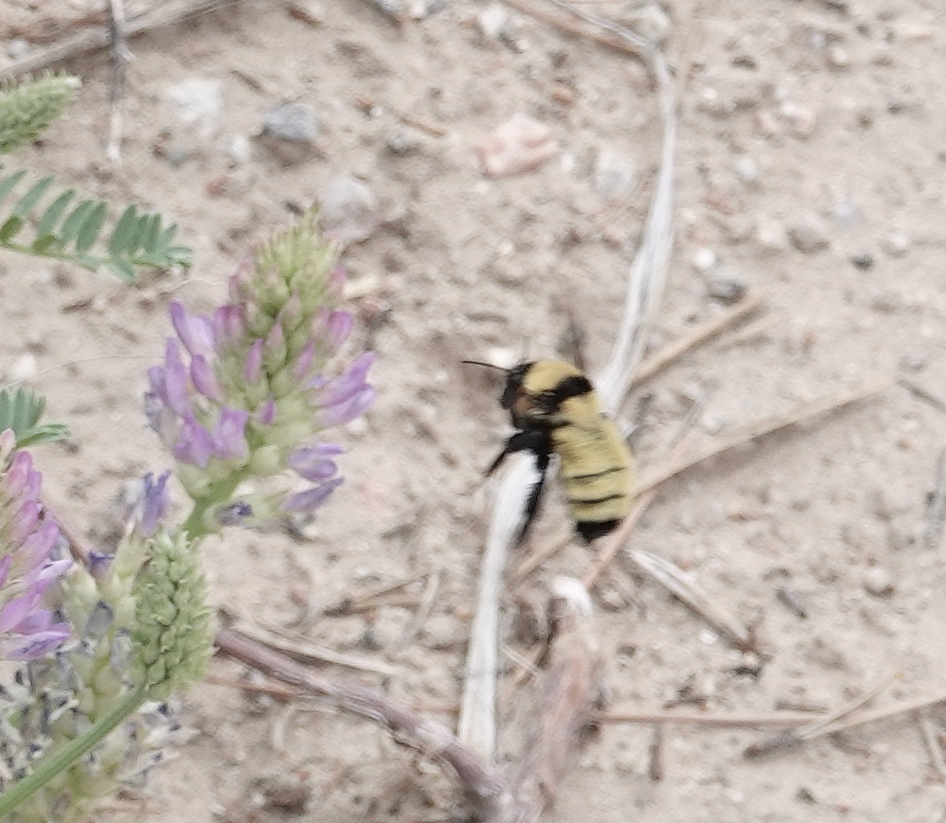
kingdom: Animalia
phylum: Arthropoda
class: Insecta
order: Hymenoptera
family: Apidae
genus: Bombus
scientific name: Bombus fervidus
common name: Yellow bumble bee
